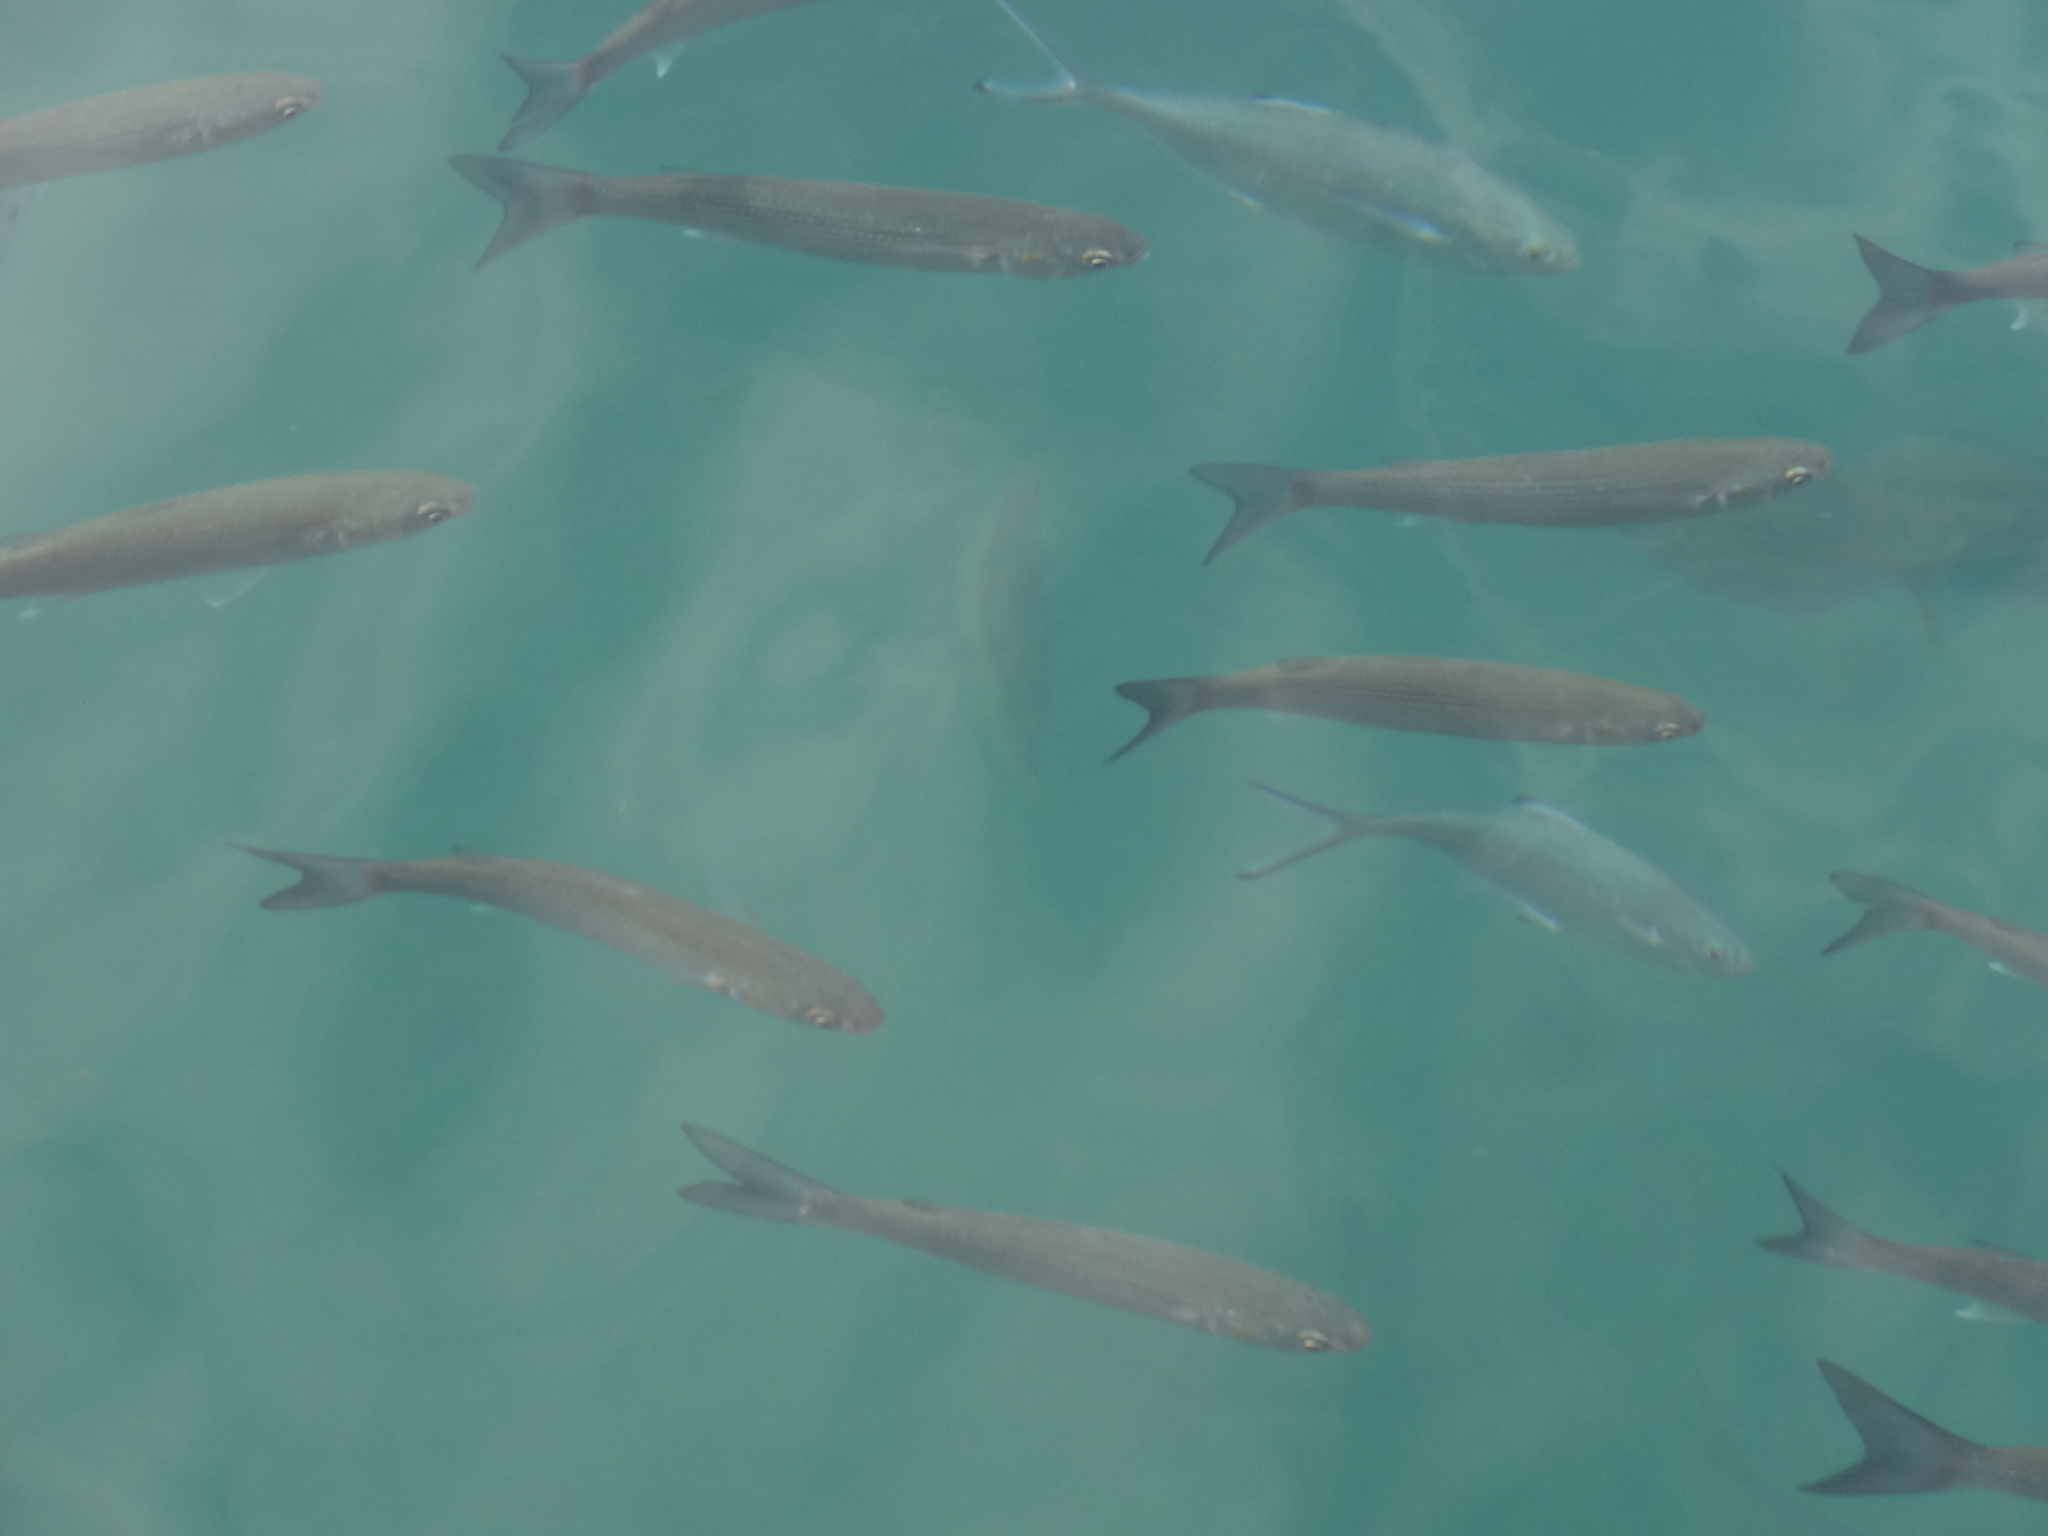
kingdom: Animalia
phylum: Chordata
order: Perciformes
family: Carangidae
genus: Trachinotus
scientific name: Trachinotus ovatus
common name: Pompano
